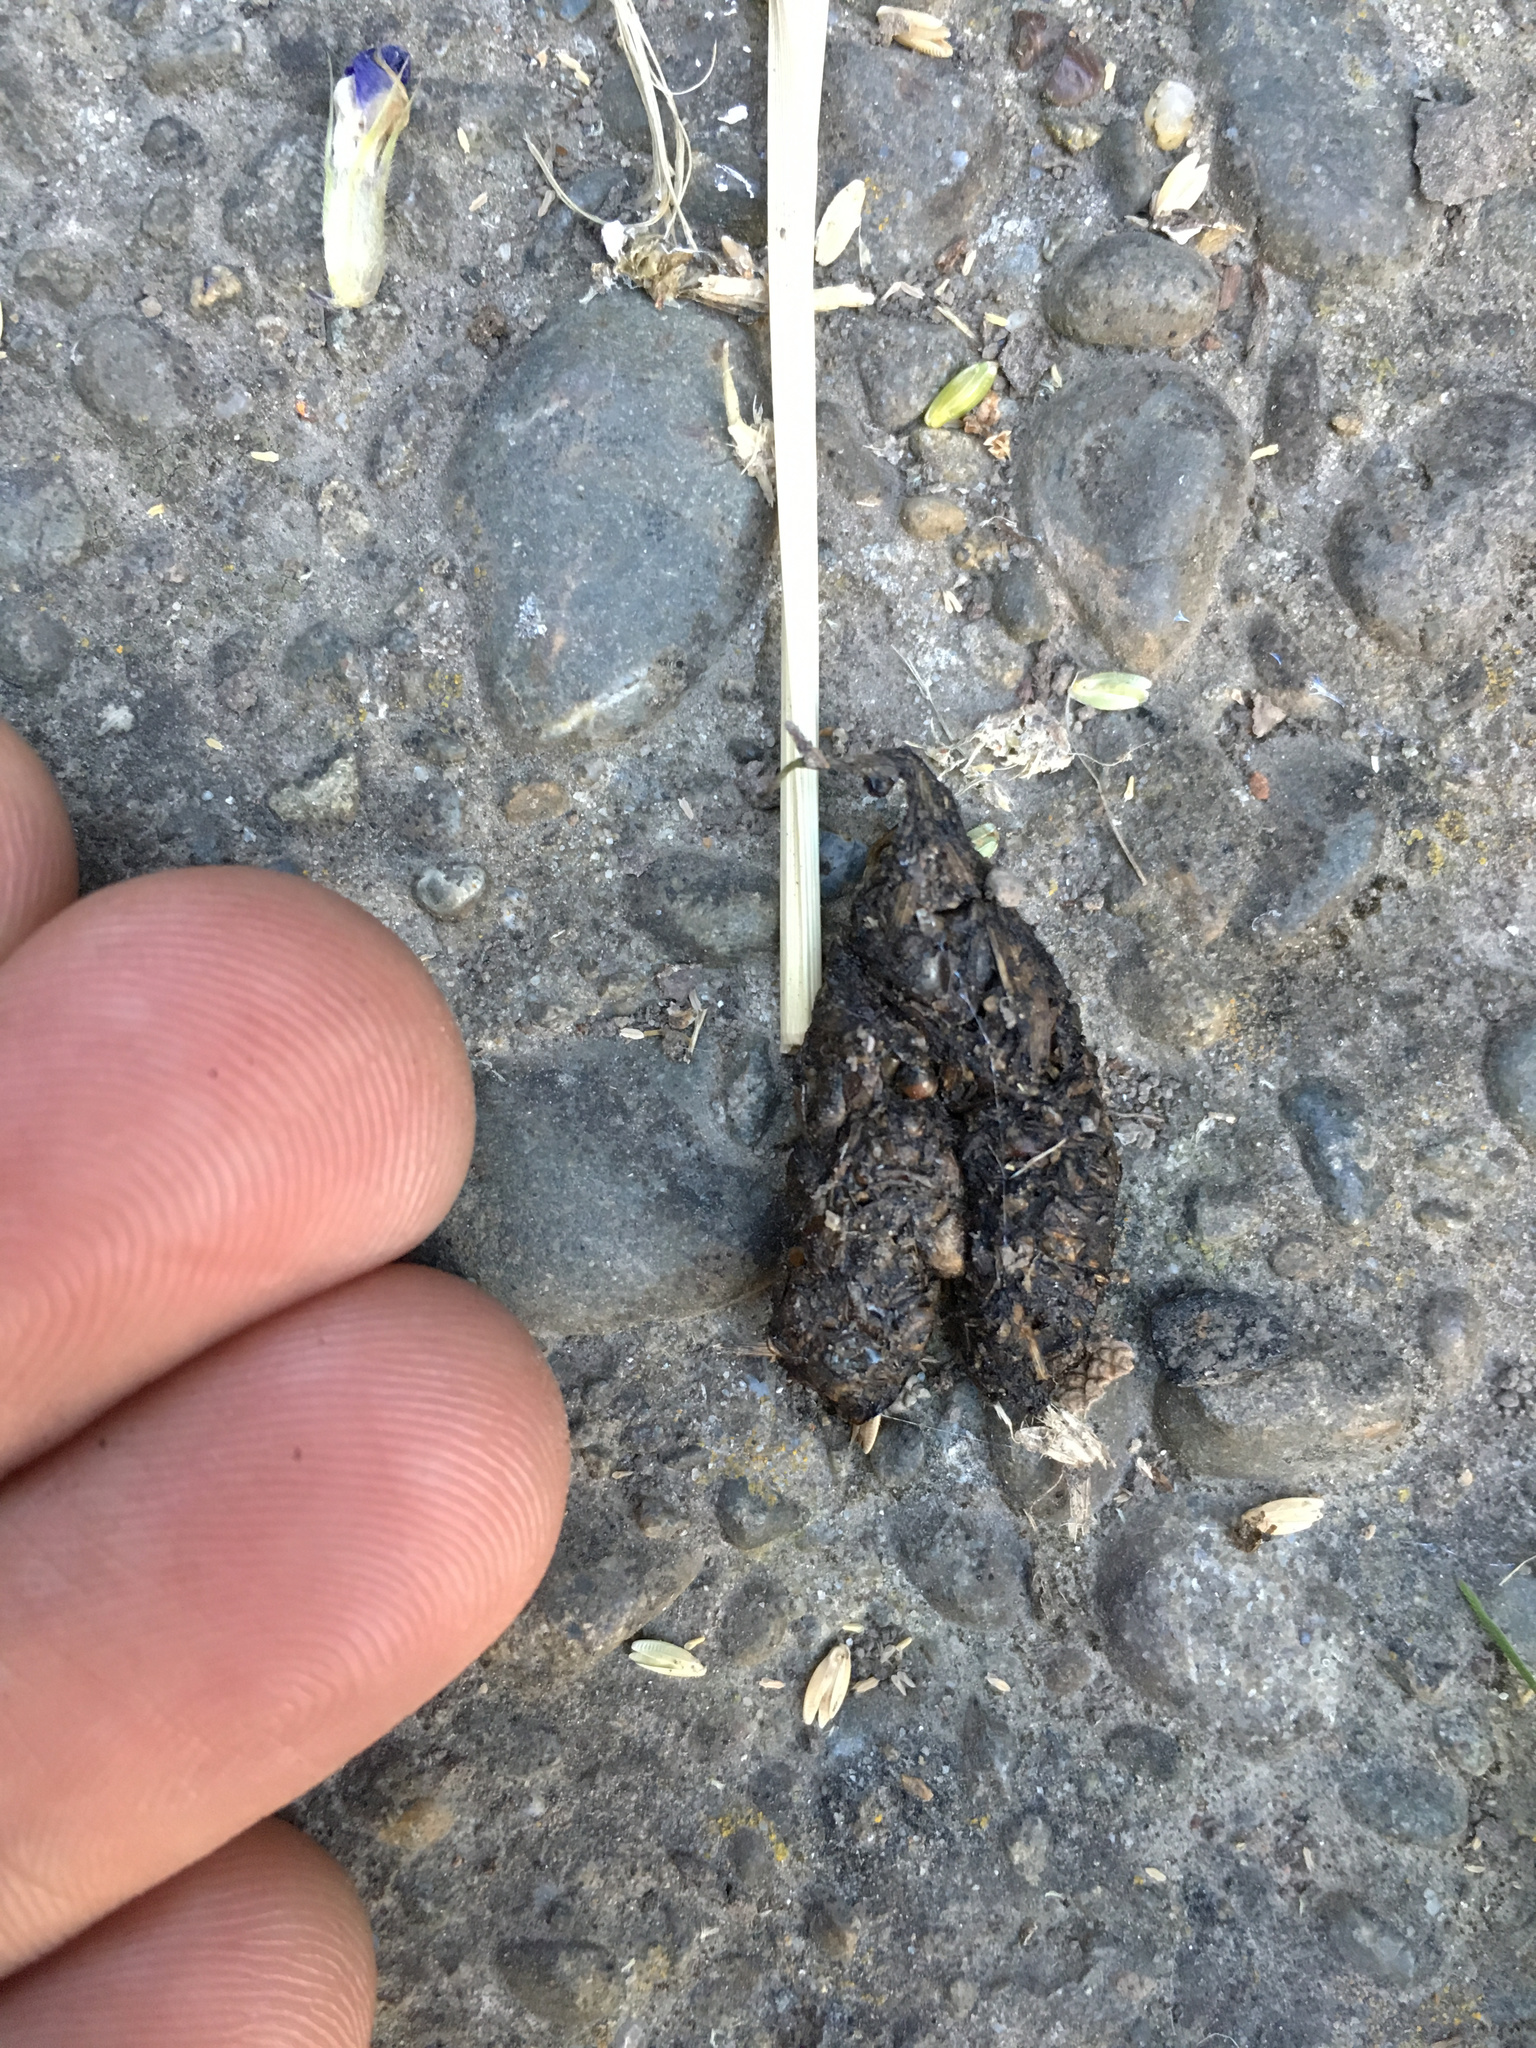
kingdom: Animalia
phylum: Chordata
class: Mammalia
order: Erinaceomorpha
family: Erinaceidae
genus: Erinaceus
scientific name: Erinaceus europaeus
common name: West european hedgehog
